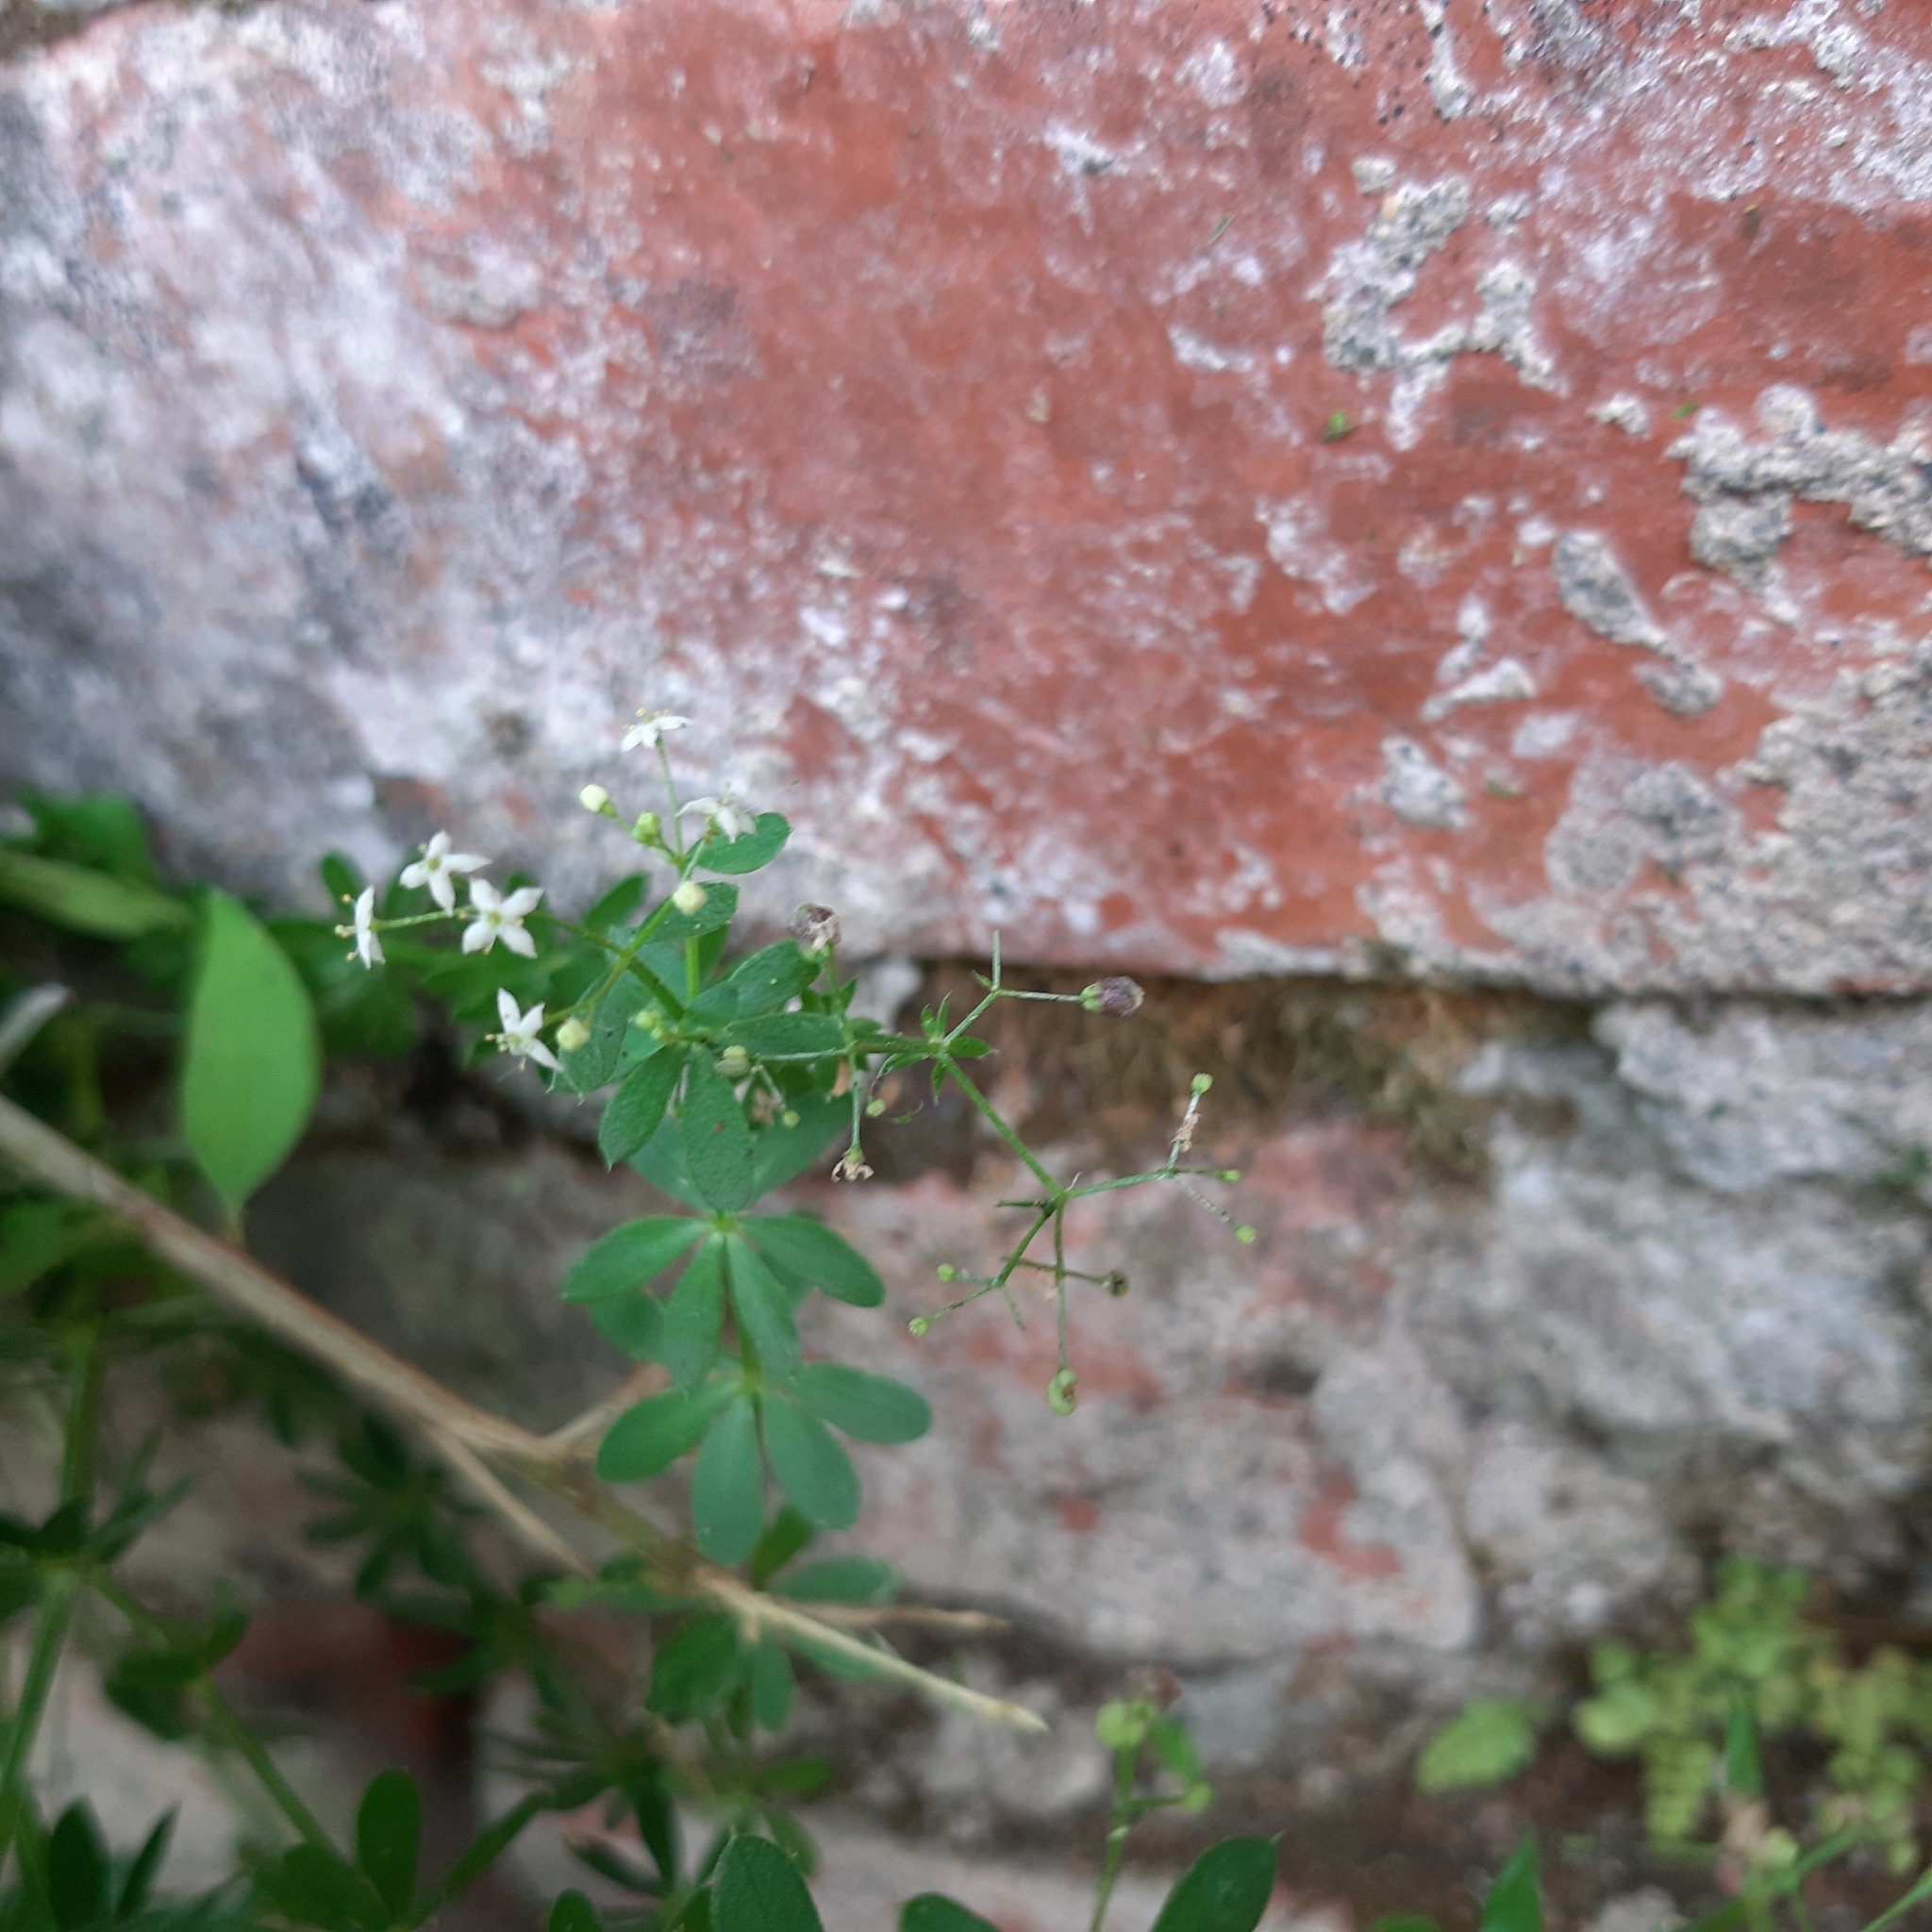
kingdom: Plantae
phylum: Tracheophyta
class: Magnoliopsida
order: Gentianales
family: Rubiaceae
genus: Galium
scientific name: Galium mollugo
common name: Hedge bedstraw
